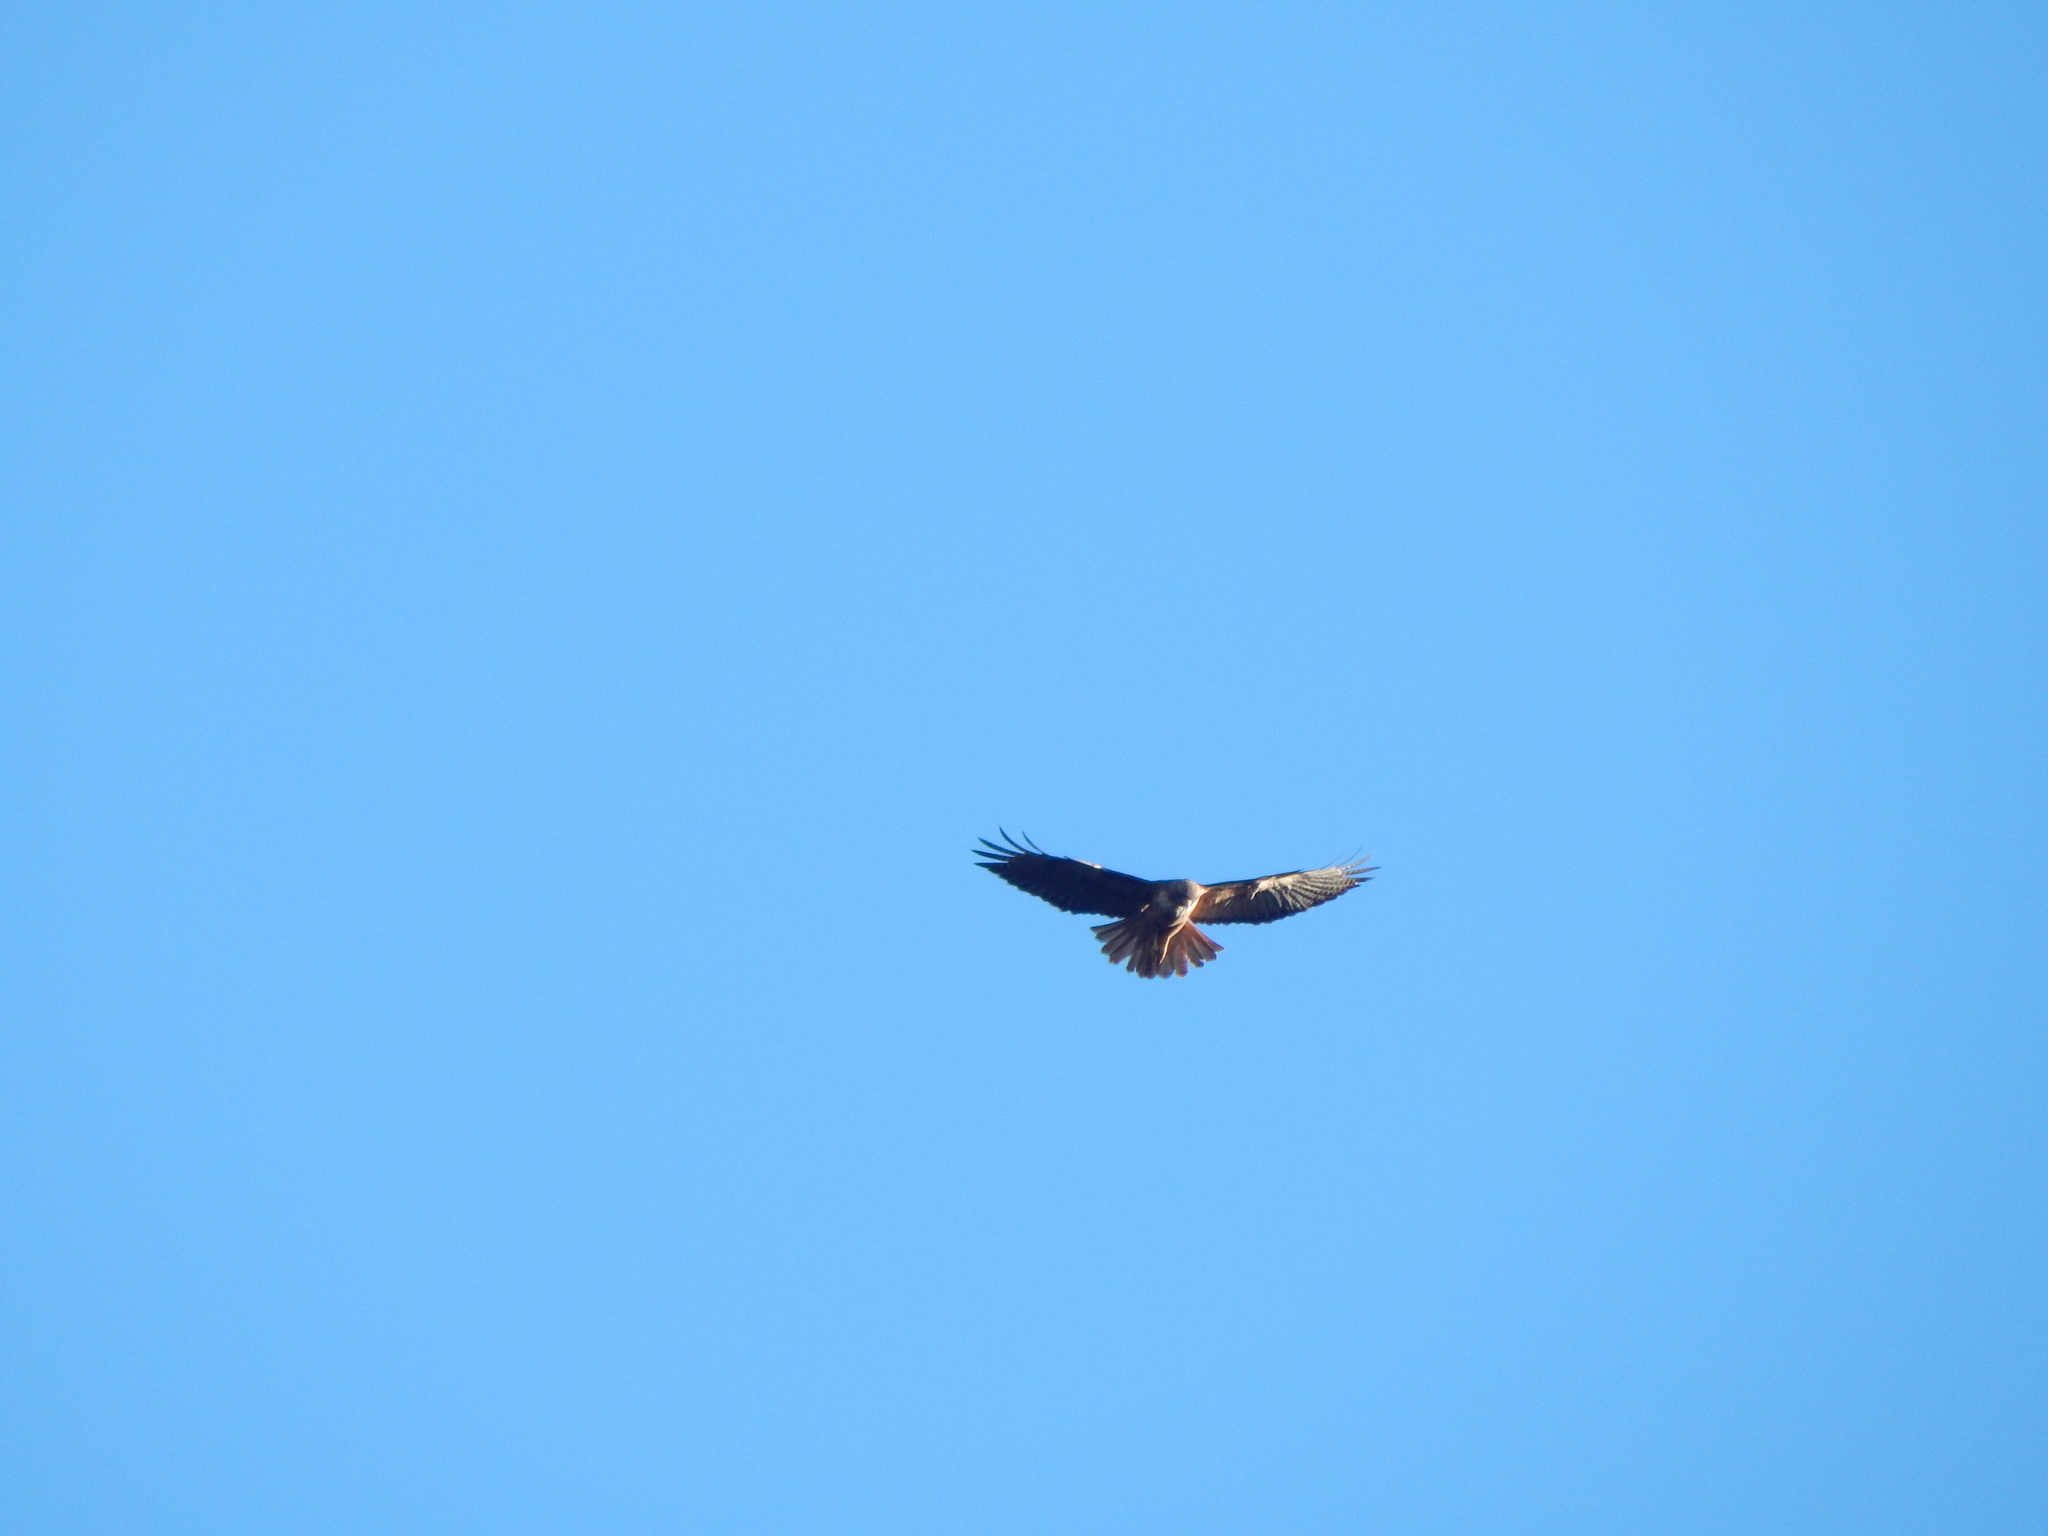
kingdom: Animalia
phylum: Chordata
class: Aves
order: Accipitriformes
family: Accipitridae
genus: Buteo
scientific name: Buteo jamaicensis
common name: Red-tailed hawk
